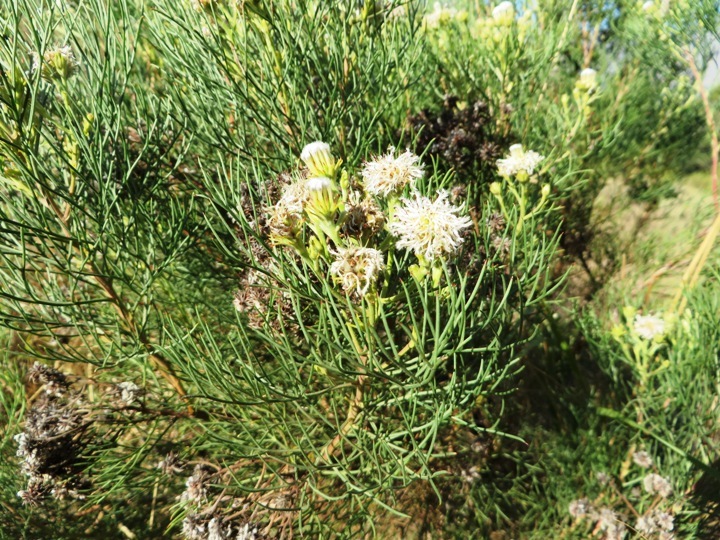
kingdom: Plantae
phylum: Tracheophyta
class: Magnoliopsida
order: Proteales
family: Proteaceae
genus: Serruria
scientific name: Serruria kraussii
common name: Snowball spiderhead
